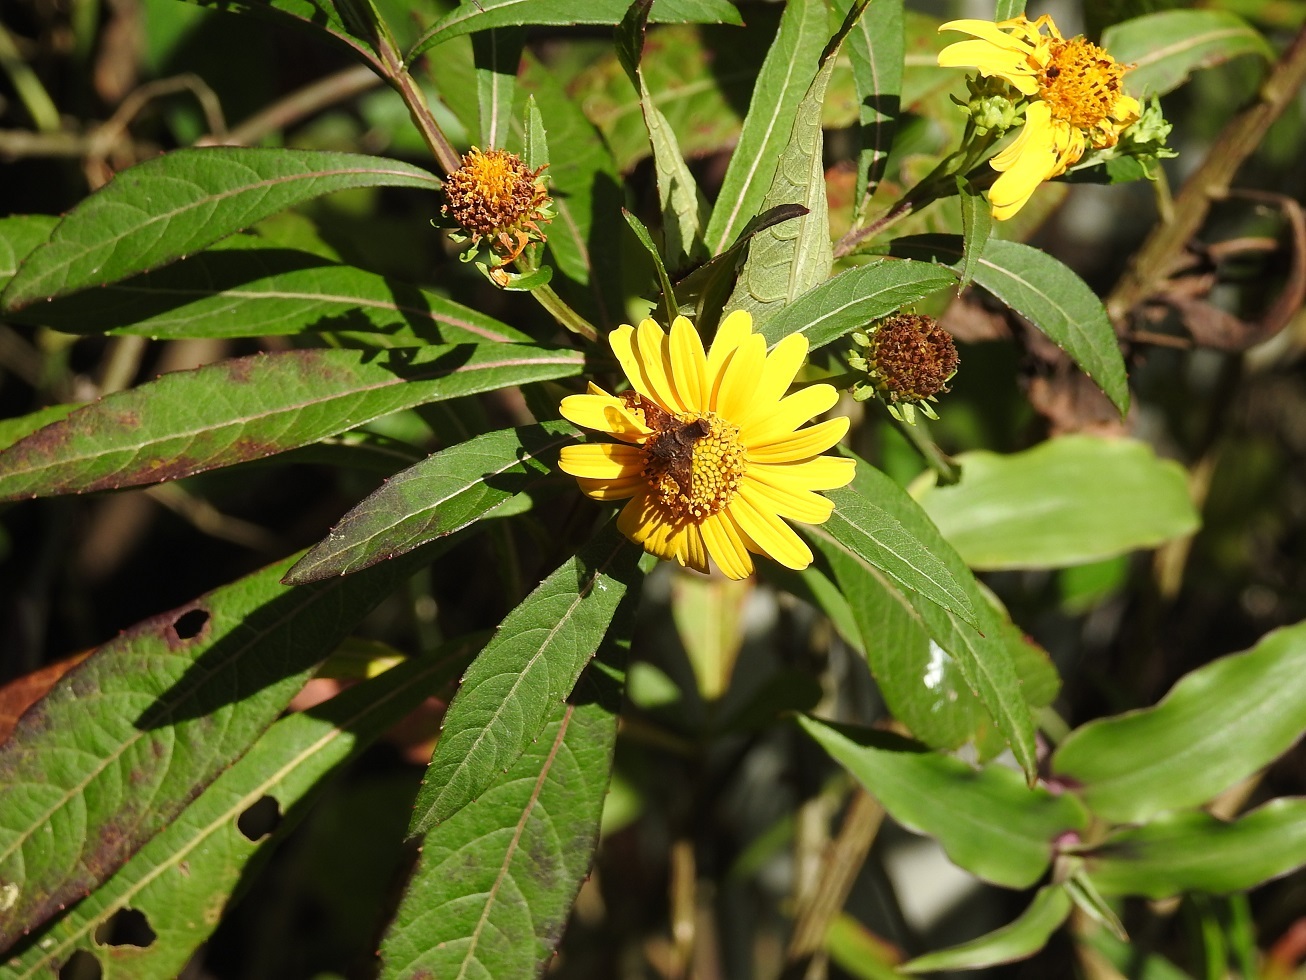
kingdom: Plantae
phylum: Tracheophyta
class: Magnoliopsida
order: Asterales
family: Asteraceae
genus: Verbesina
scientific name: Verbesina neriifolia
